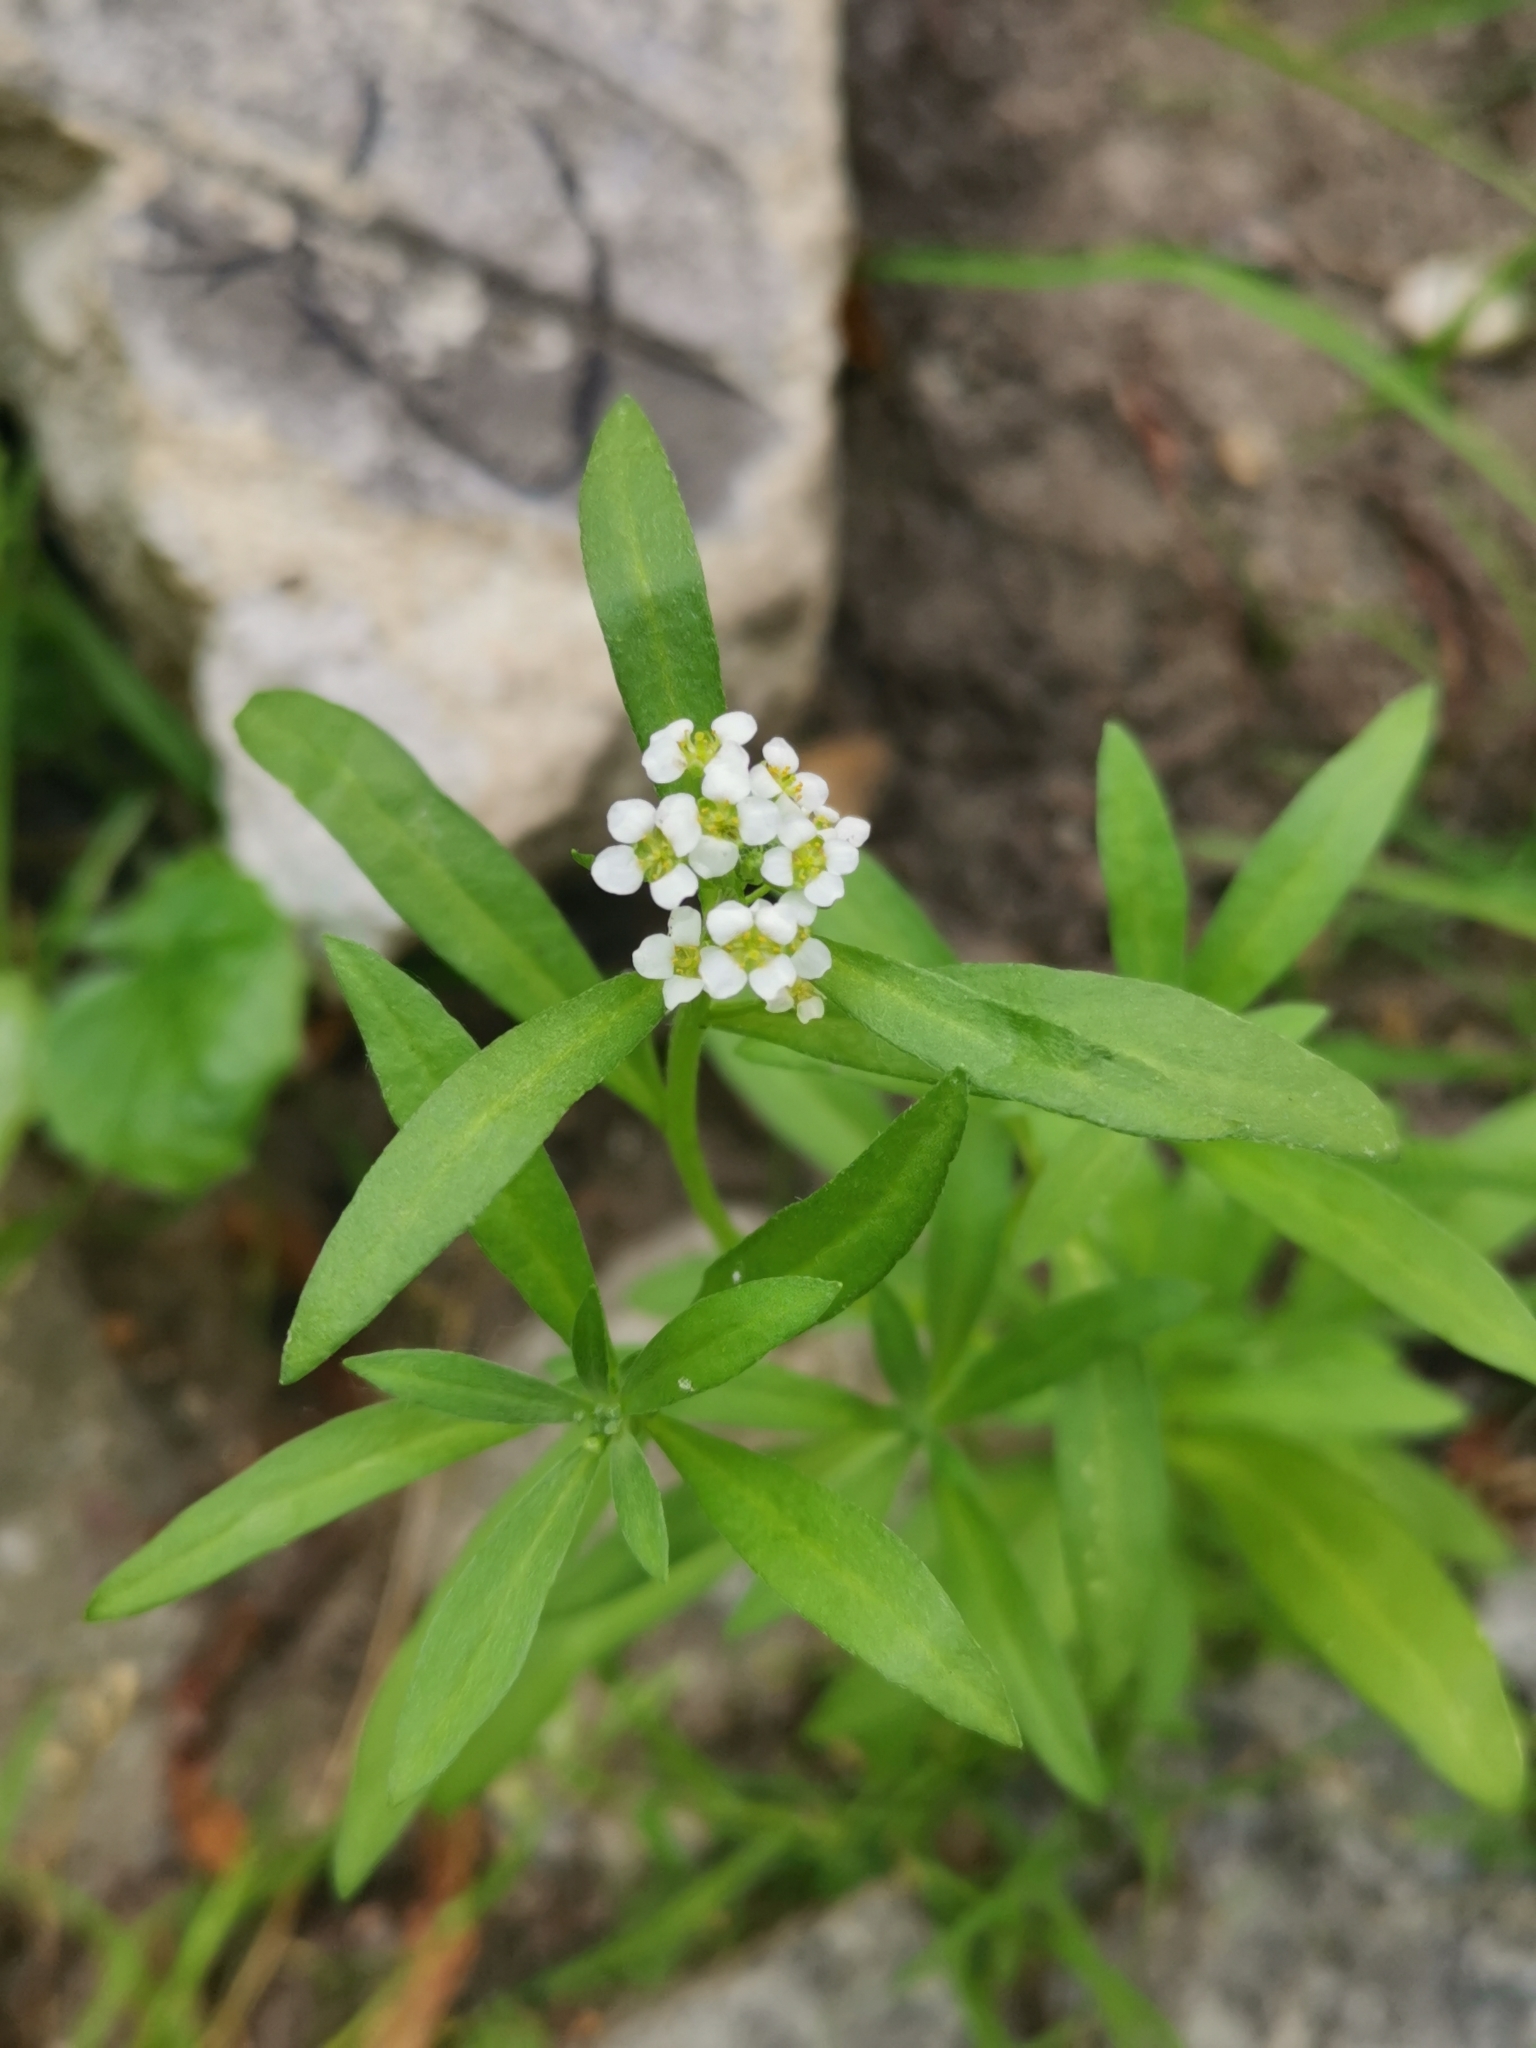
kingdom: Plantae
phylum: Tracheophyta
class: Magnoliopsida
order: Brassicales
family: Brassicaceae
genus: Lobularia
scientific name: Lobularia maritima
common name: Sweet alison
